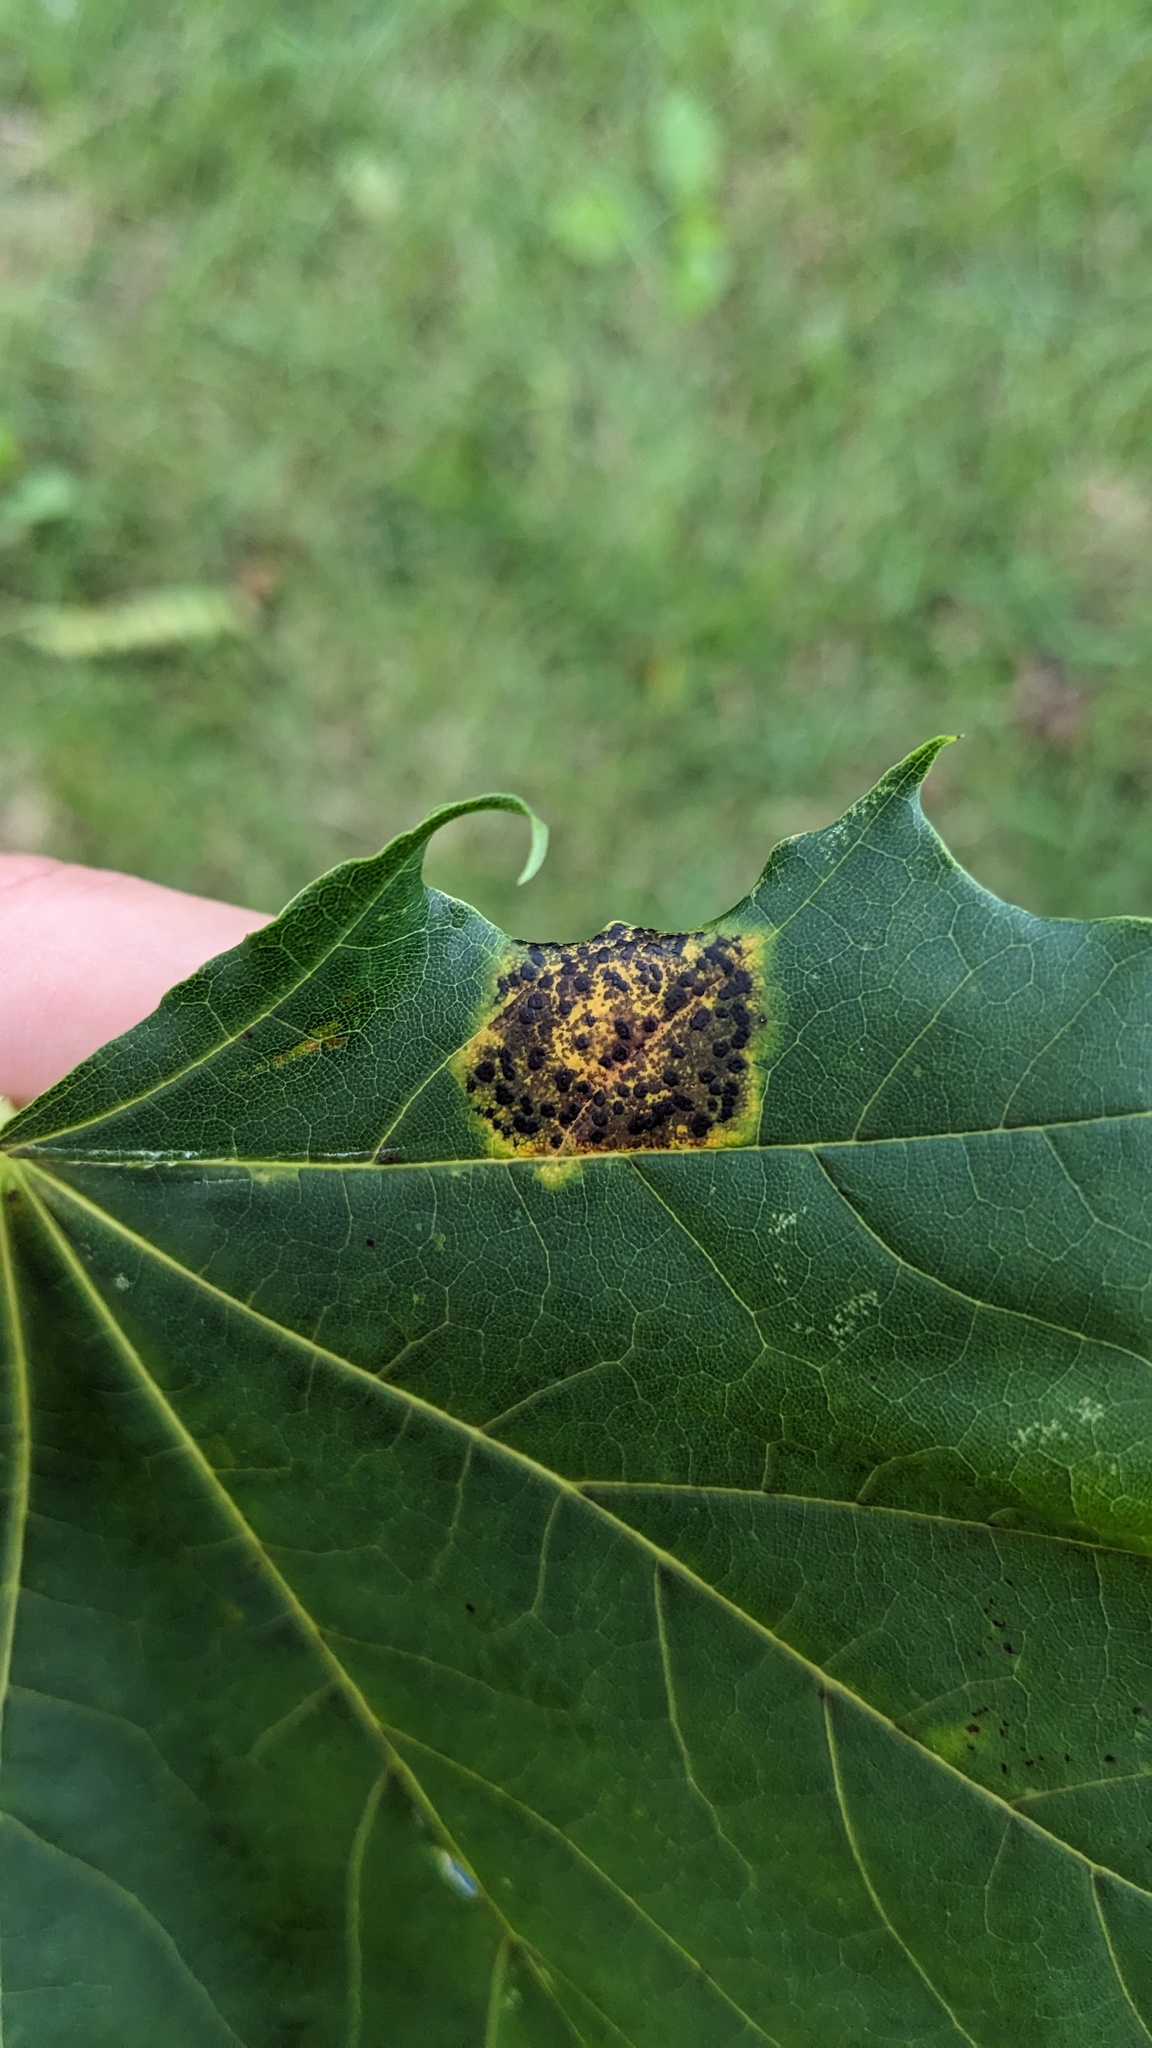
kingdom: Fungi
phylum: Ascomycota
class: Leotiomycetes
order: Rhytismatales
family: Rhytismataceae
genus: Rhytisma
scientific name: Rhytisma acerinum
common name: European tar spot
